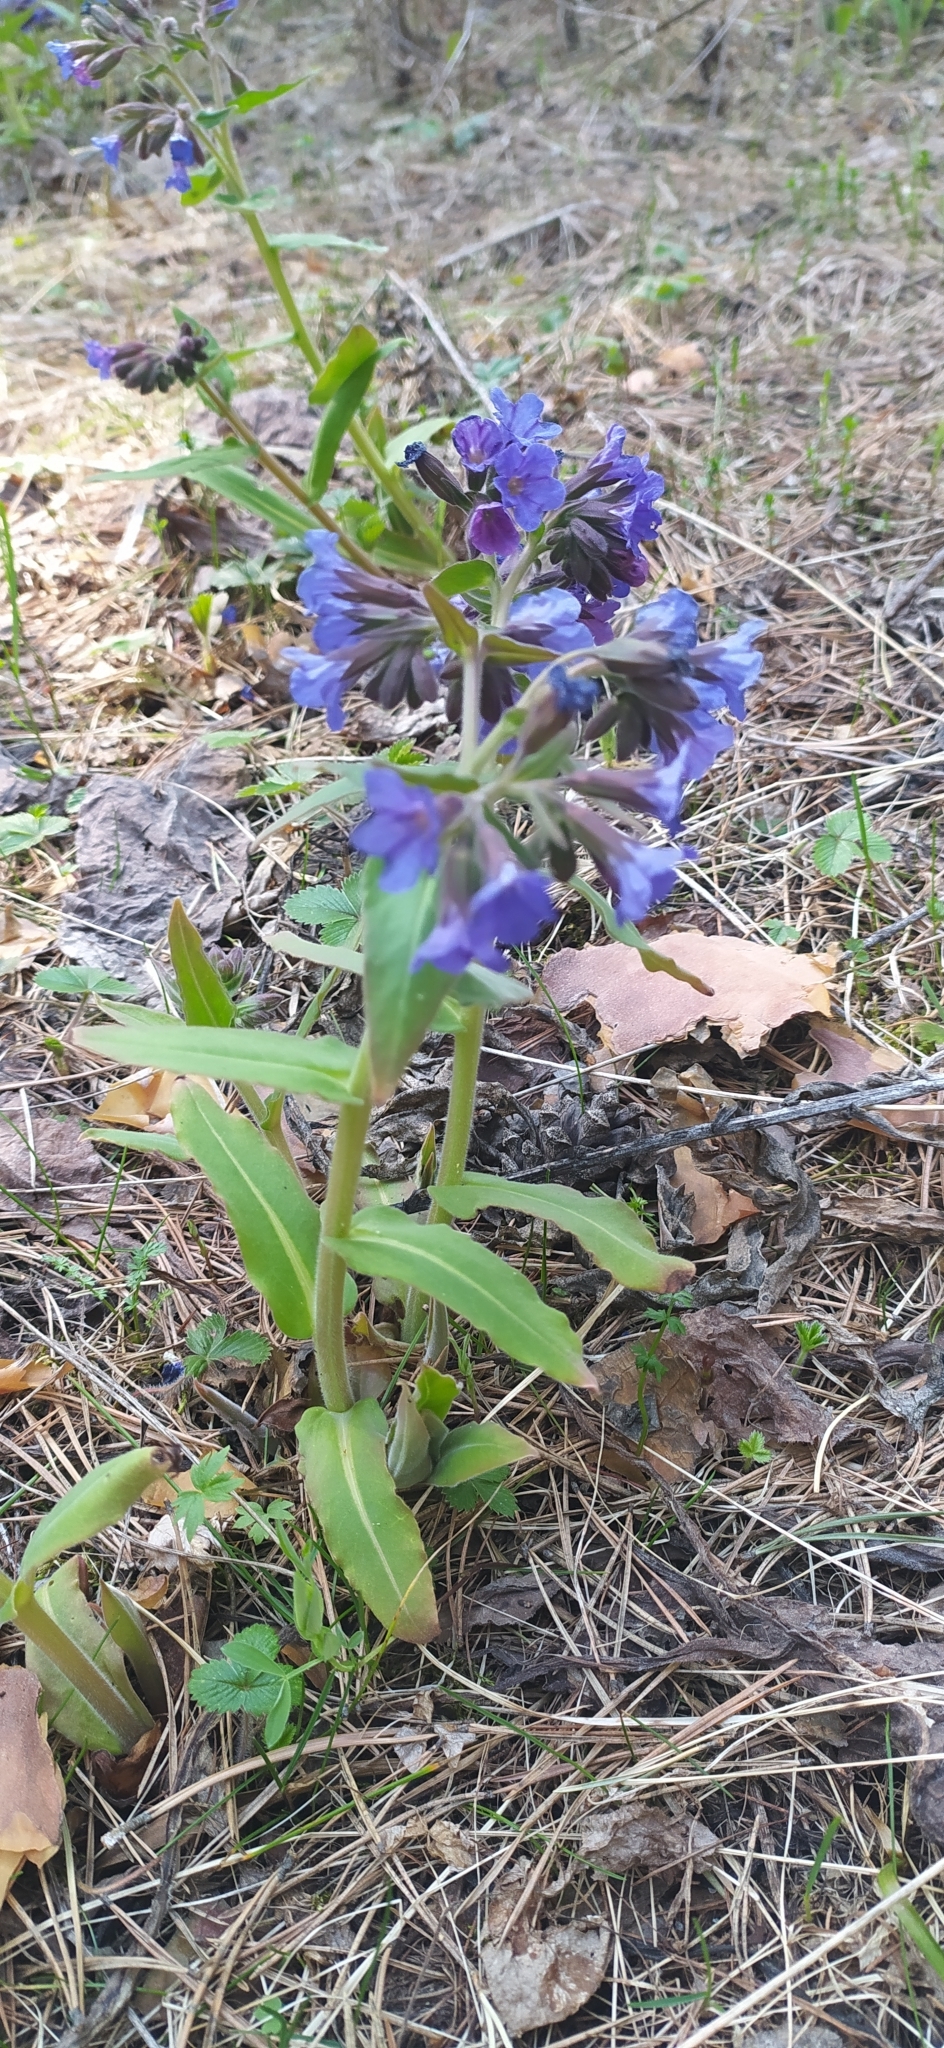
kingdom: Plantae
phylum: Tracheophyta
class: Magnoliopsida
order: Boraginales
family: Boraginaceae
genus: Pulmonaria
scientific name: Pulmonaria mollis
